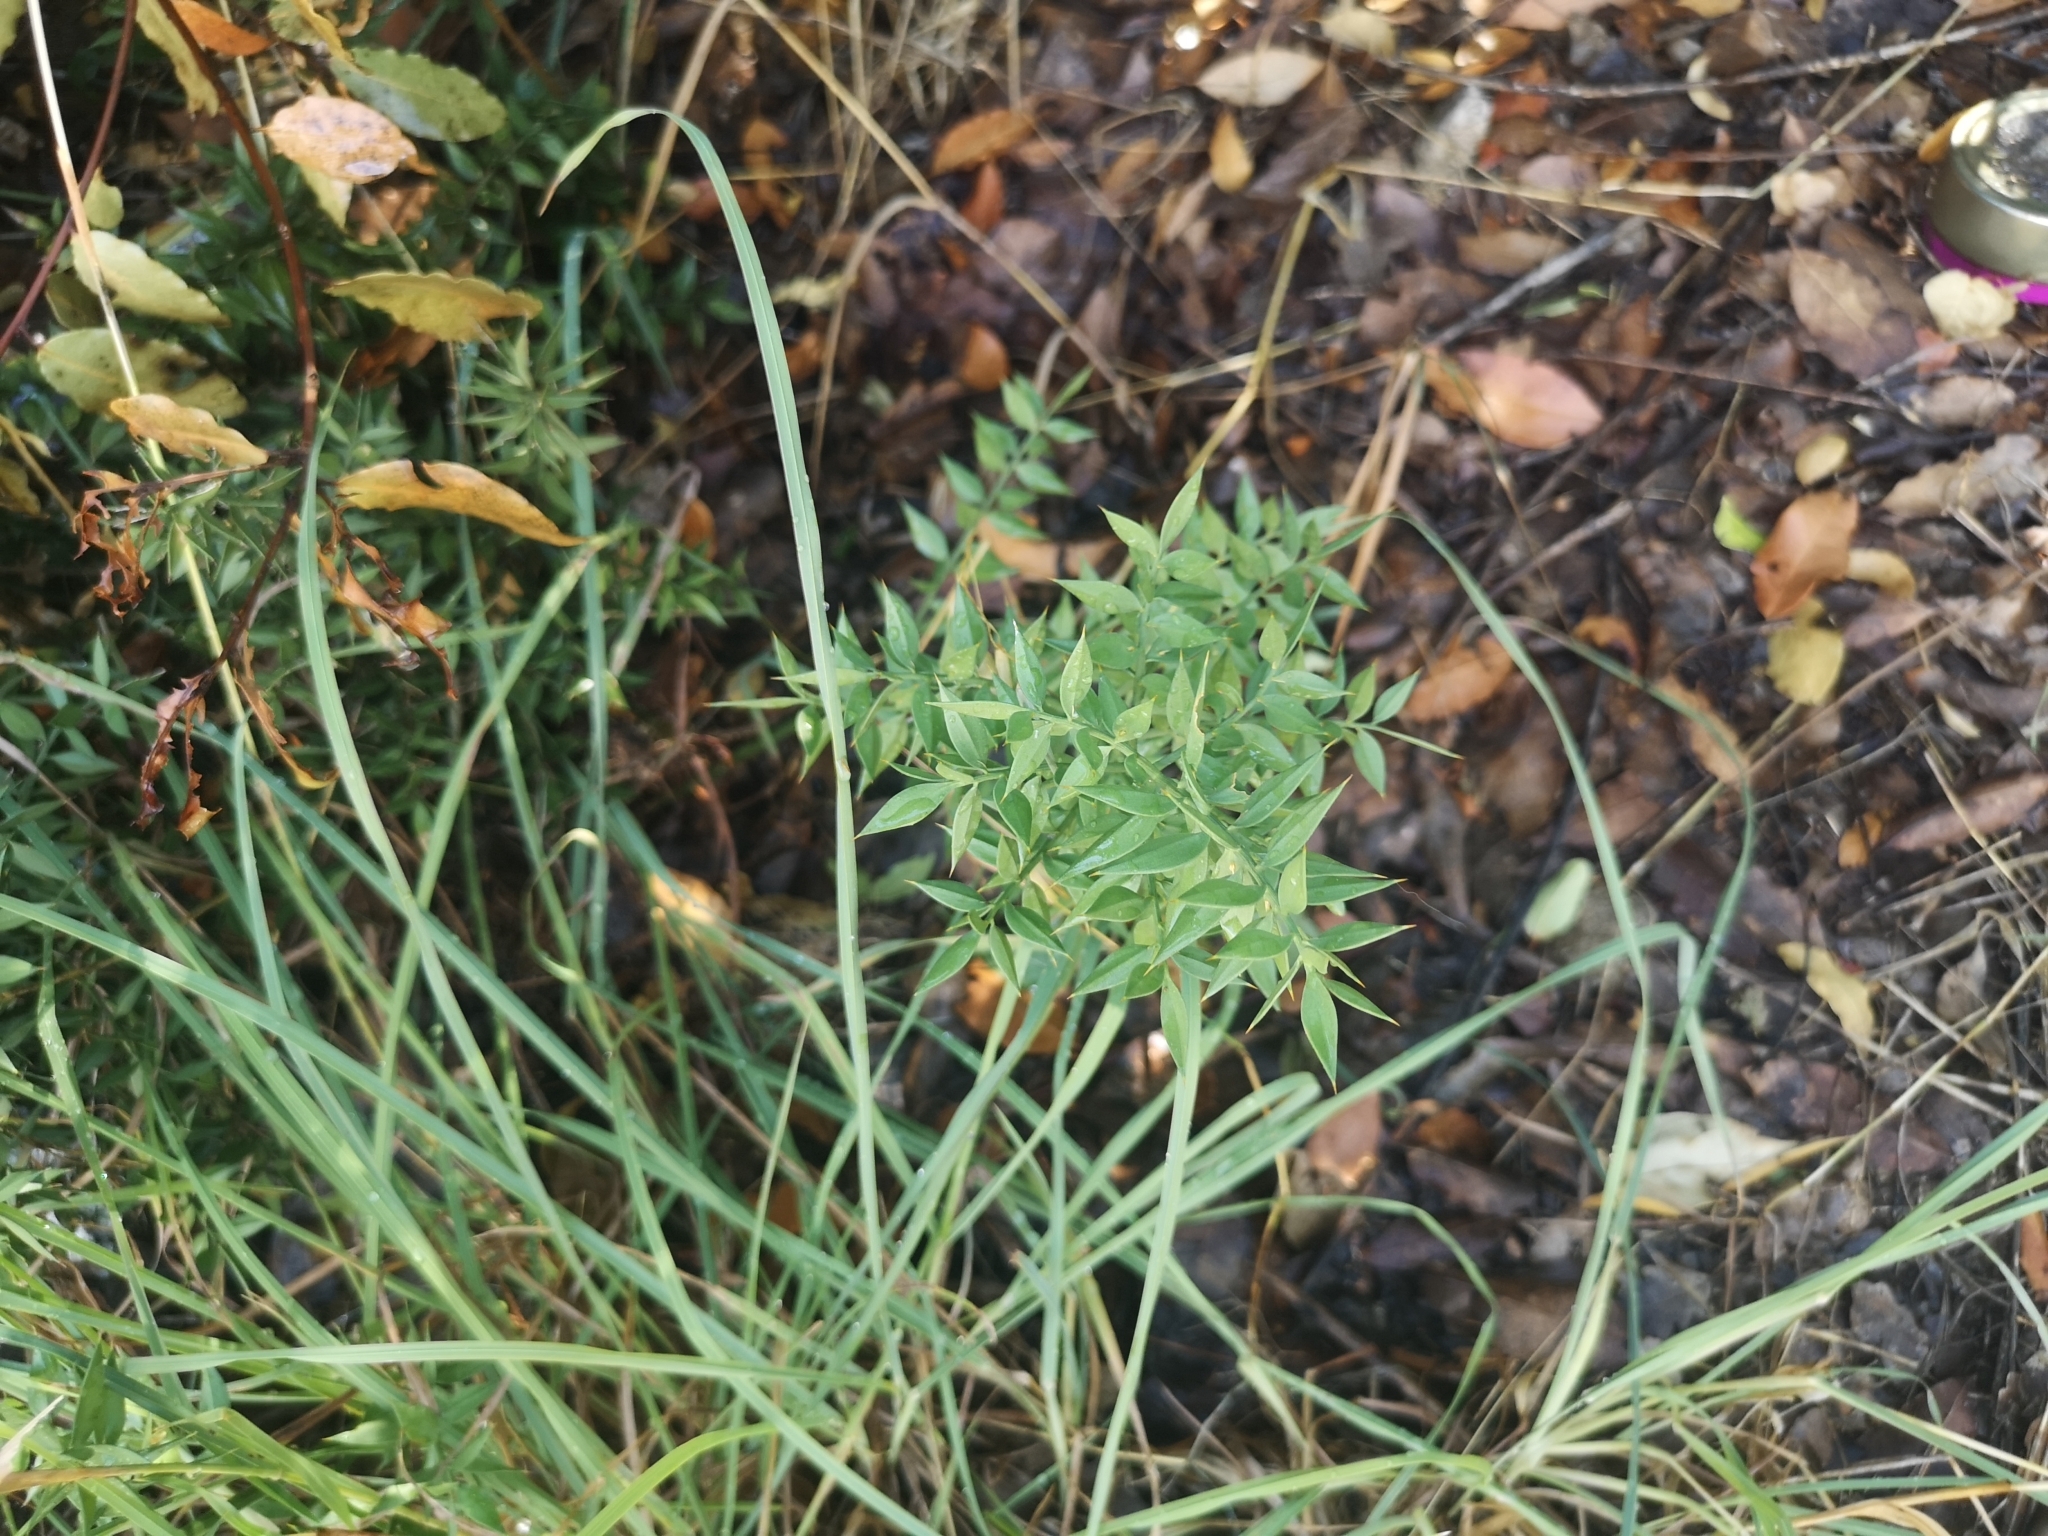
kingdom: Plantae
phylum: Tracheophyta
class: Liliopsida
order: Asparagales
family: Asparagaceae
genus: Ruscus
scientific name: Ruscus aculeatus
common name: Butcher's-broom
